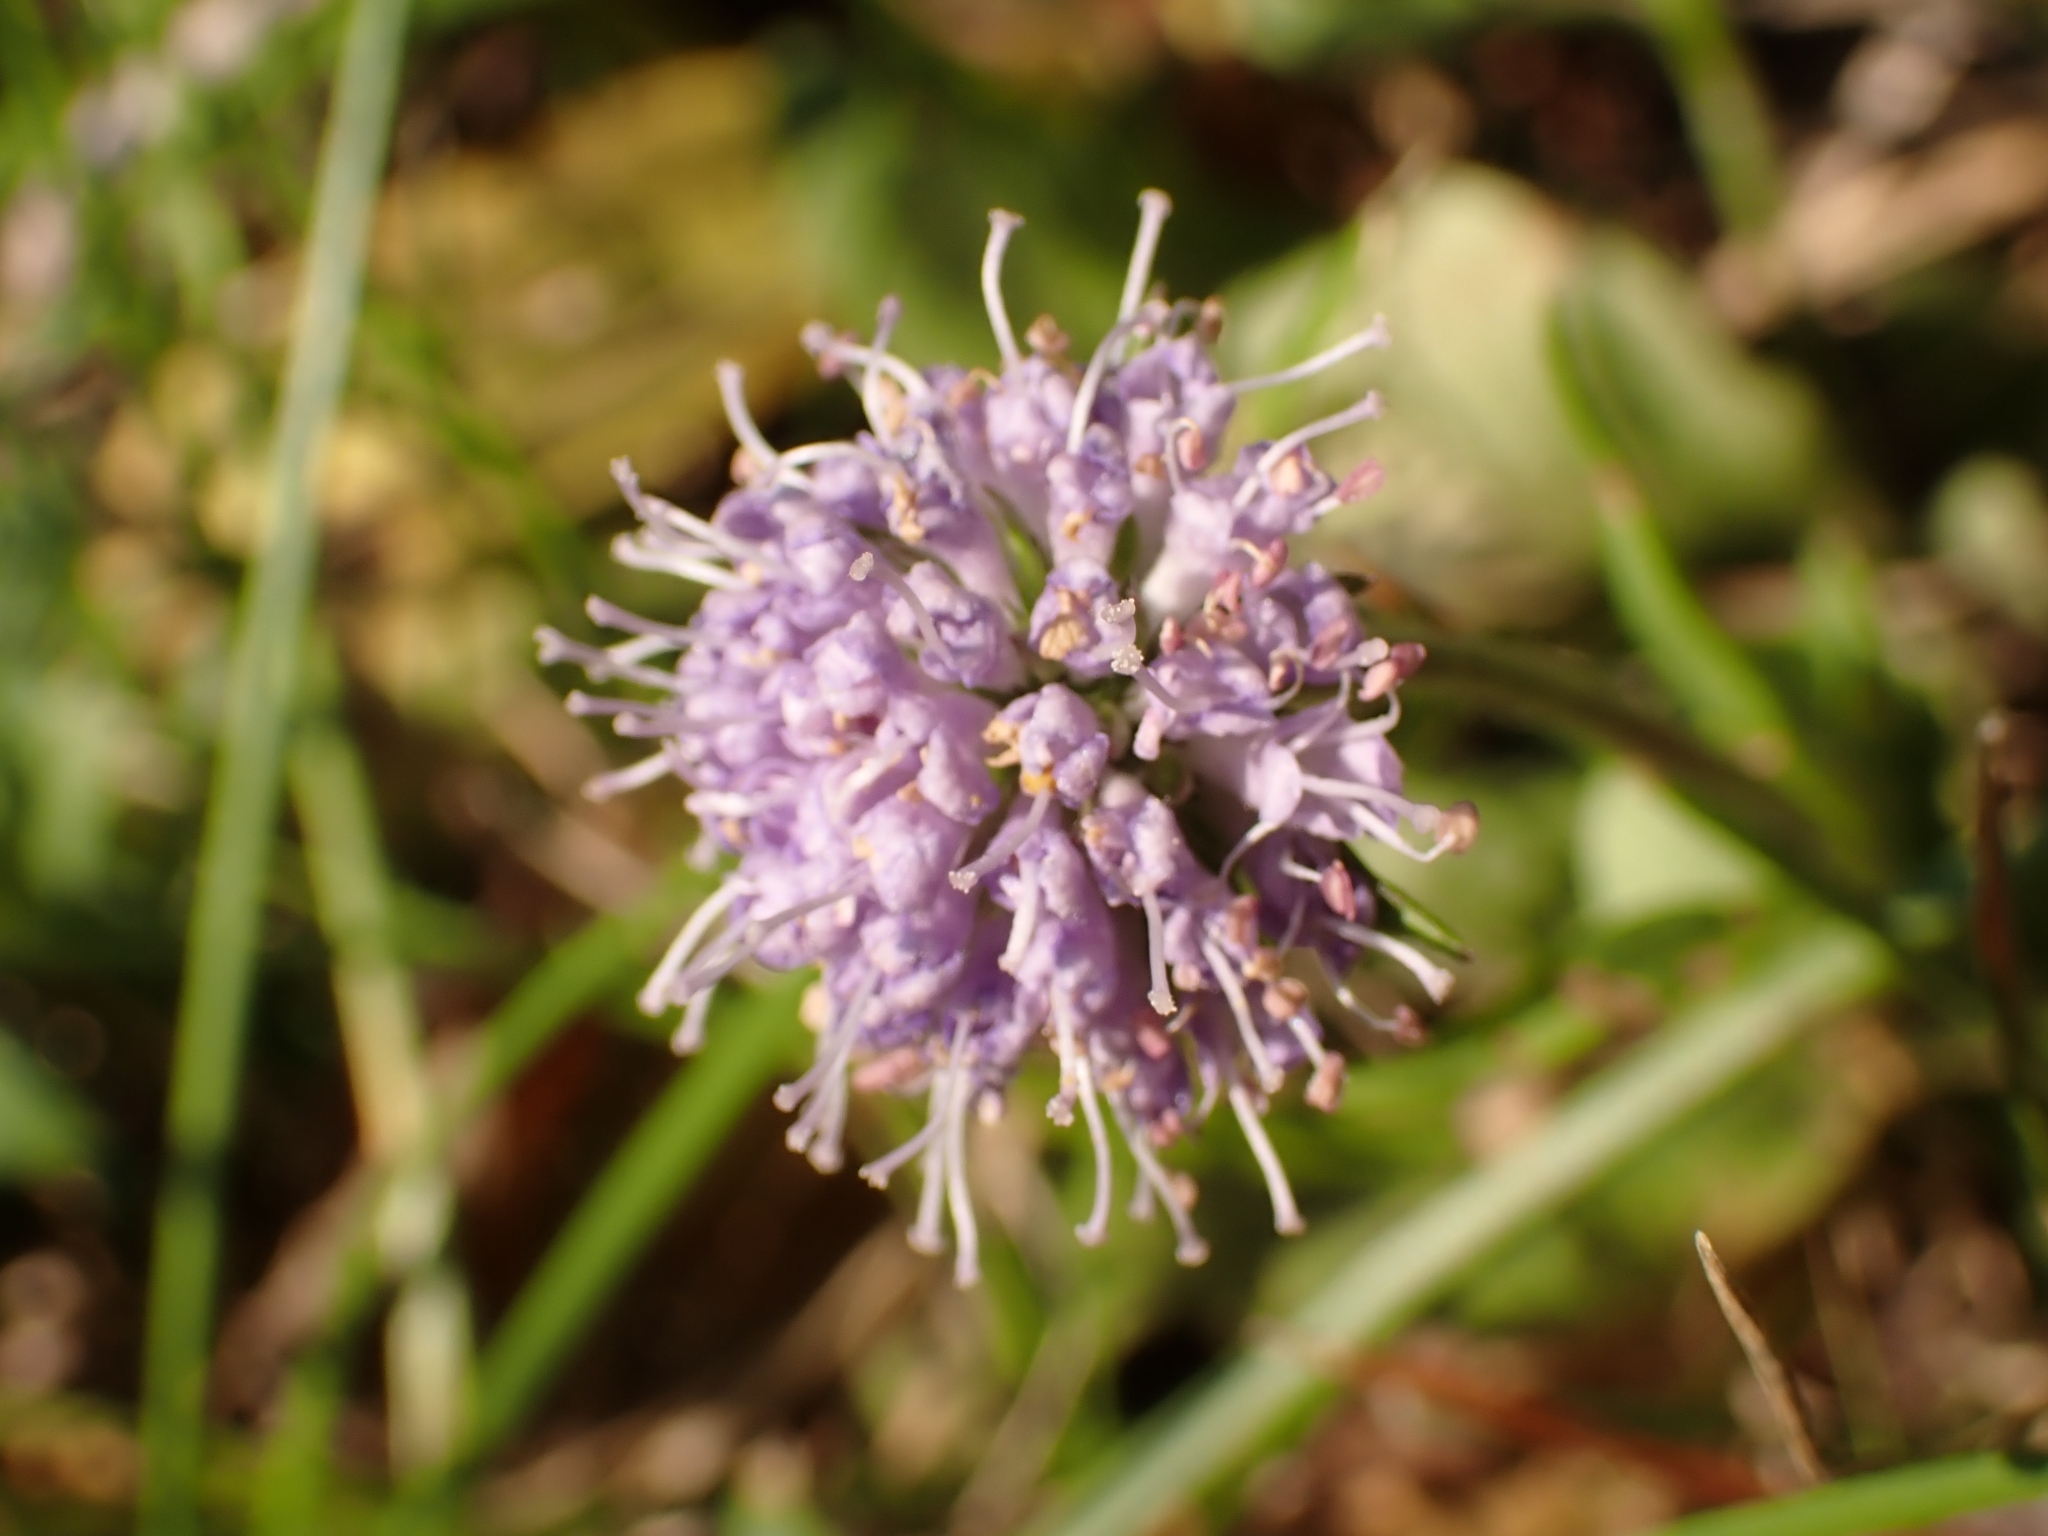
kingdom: Plantae
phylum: Tracheophyta
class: Magnoliopsida
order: Dipsacales
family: Caprifoliaceae
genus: Succisa
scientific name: Succisa pratensis
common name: Devil's-bit
